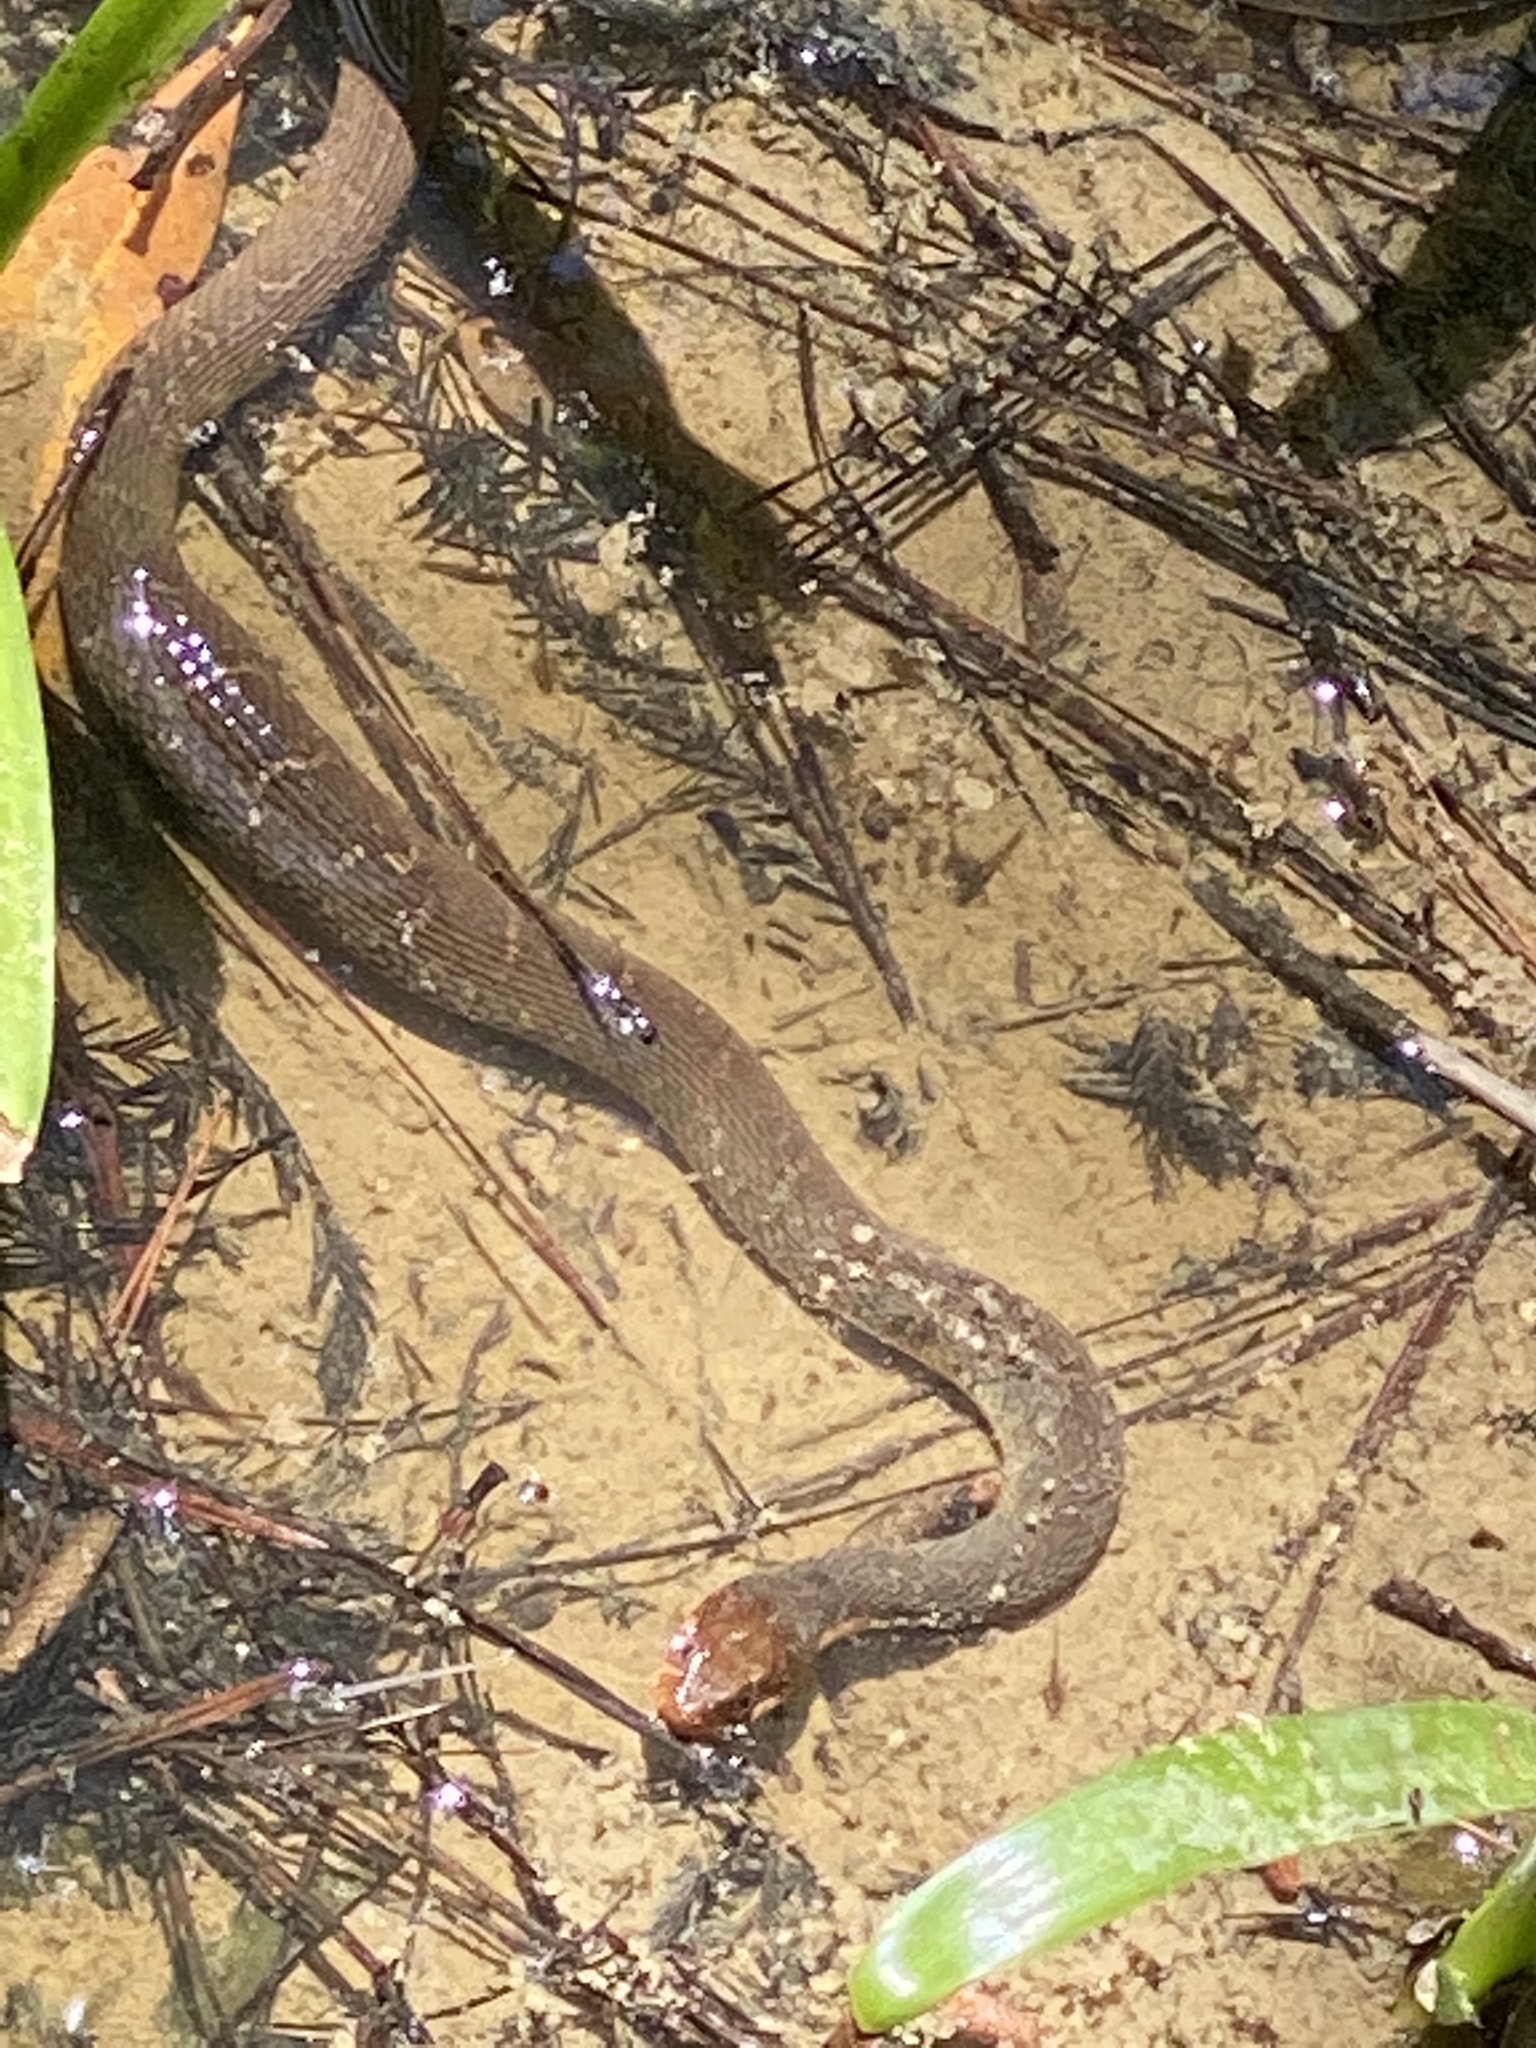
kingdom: Animalia
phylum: Chordata
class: Squamata
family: Colubridae
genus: Nerodia
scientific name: Nerodia erythrogaster
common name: Plainbelly water snake
